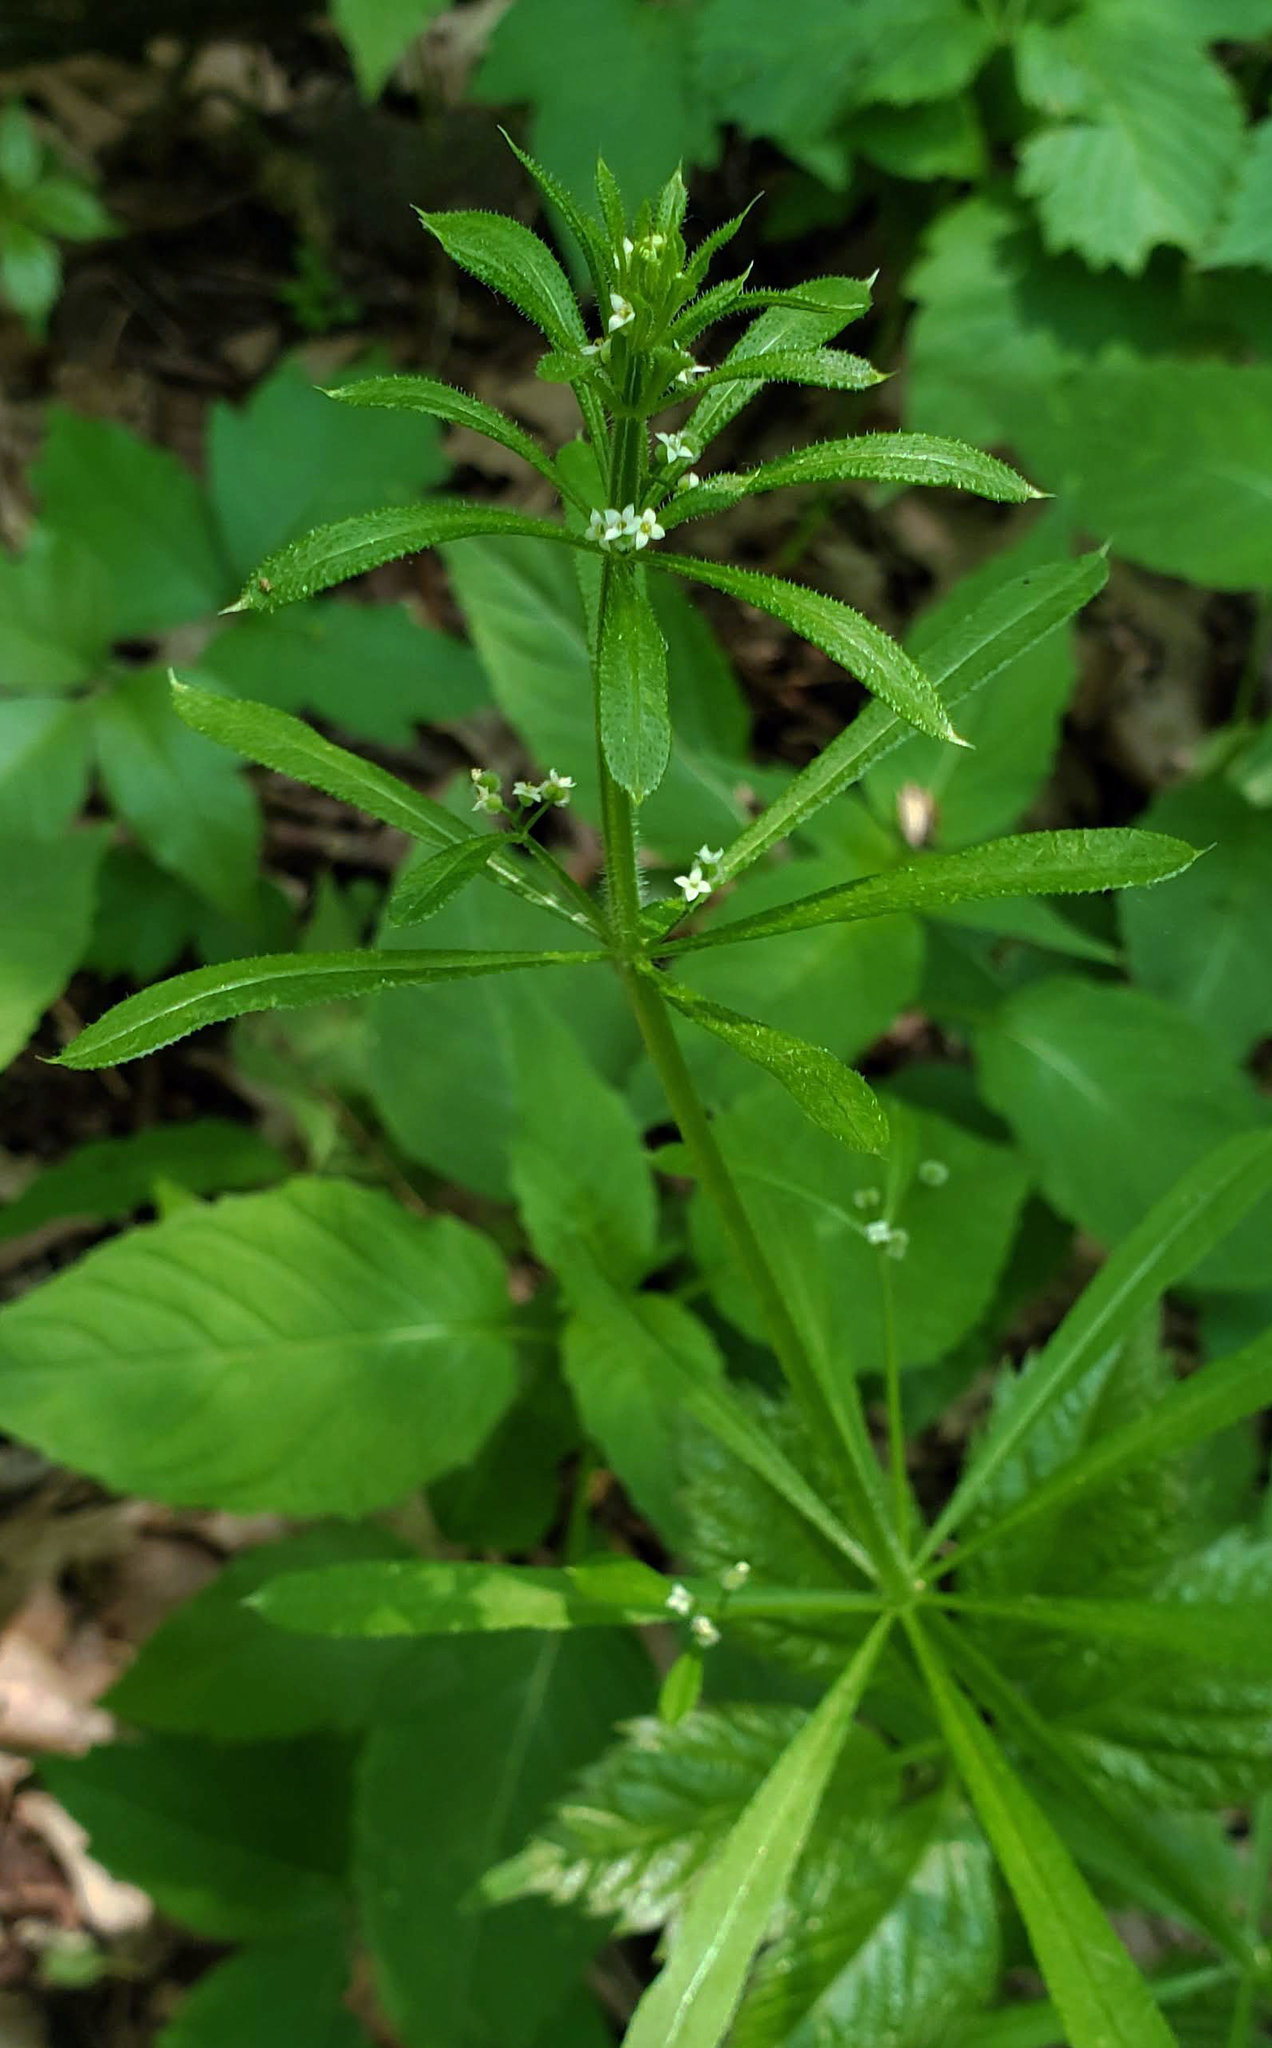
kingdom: Plantae
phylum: Tracheophyta
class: Magnoliopsida
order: Gentianales
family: Rubiaceae
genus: Galium
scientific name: Galium aparine
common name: Cleavers
